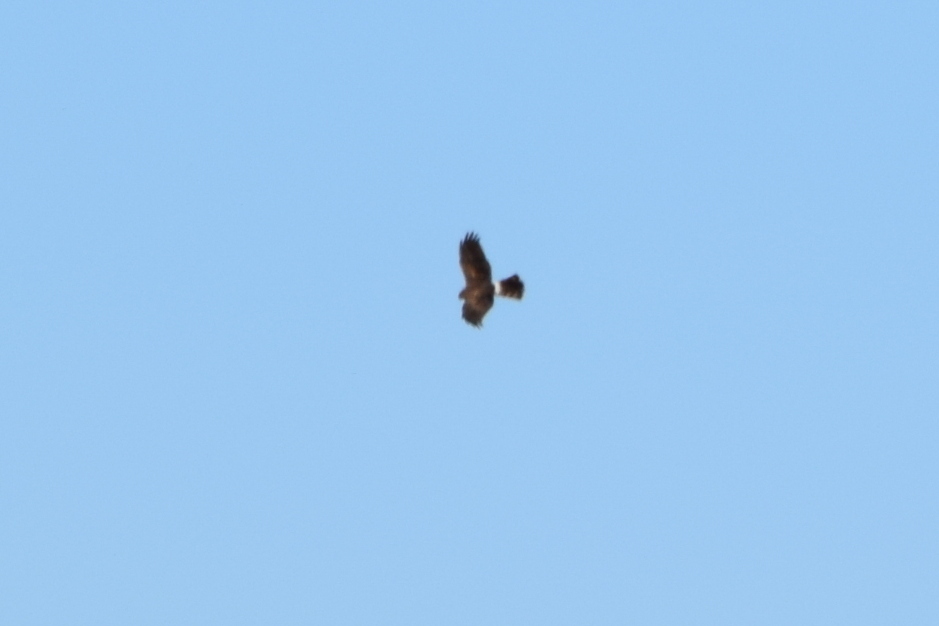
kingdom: Animalia
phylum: Chordata
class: Aves
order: Accipitriformes
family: Accipitridae
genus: Circus
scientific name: Circus cyaneus
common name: Hen harrier
